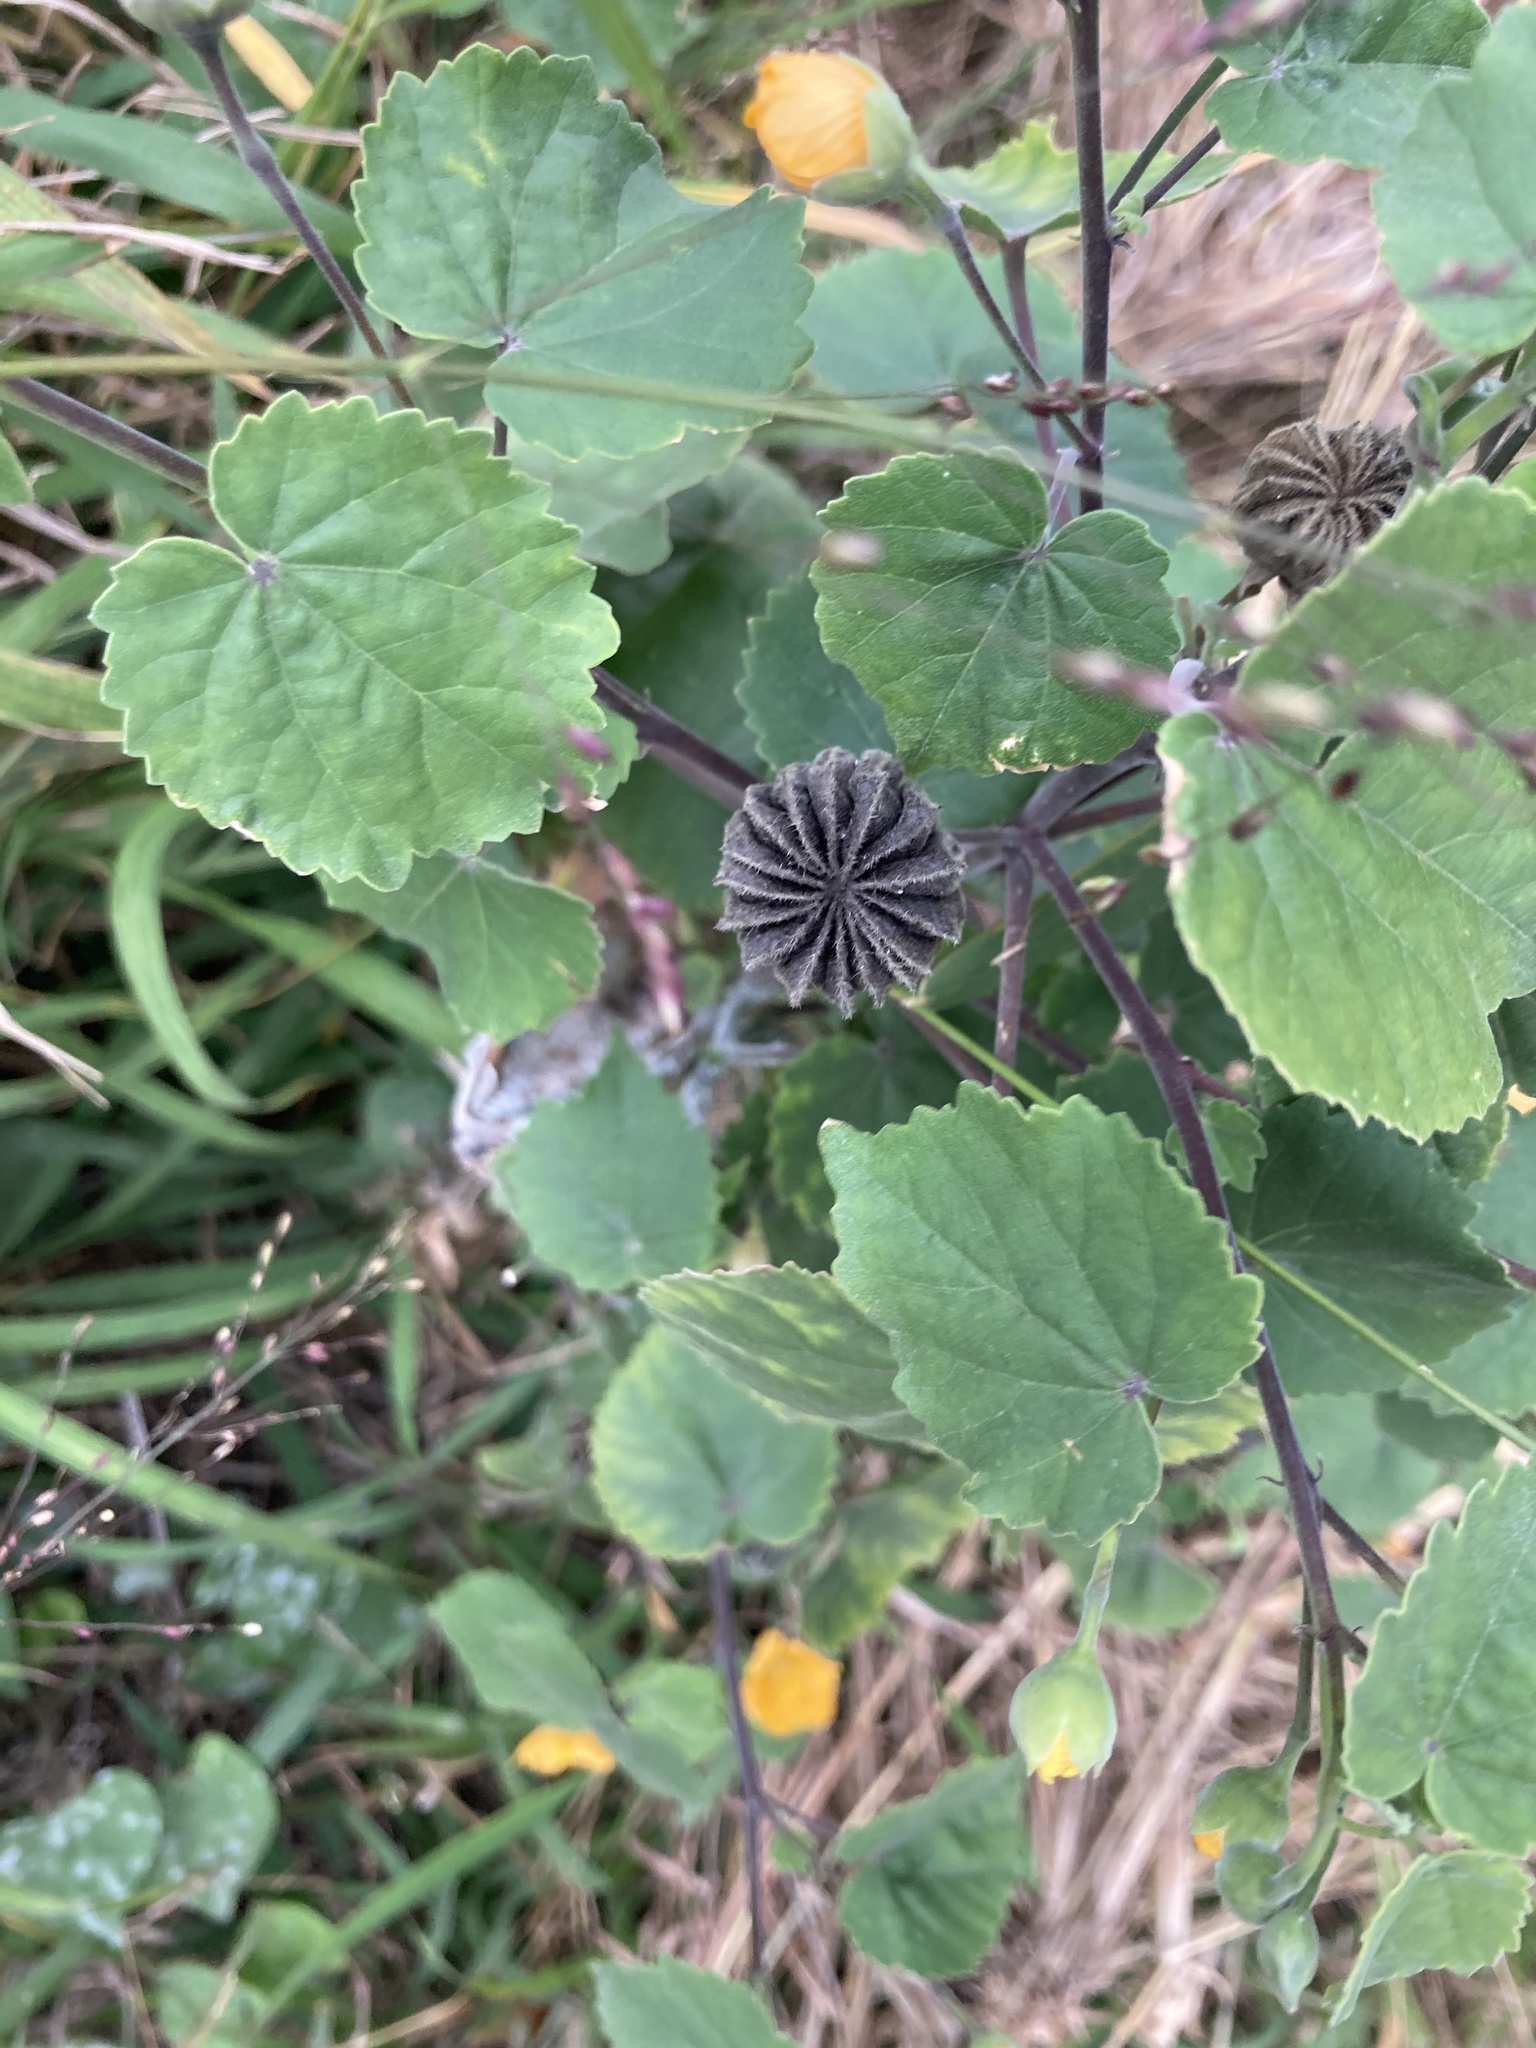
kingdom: Plantae
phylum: Tracheophyta
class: Magnoliopsida
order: Malvales
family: Malvaceae
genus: Abutilon
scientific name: Abutilon indicum
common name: Indian abutilon
